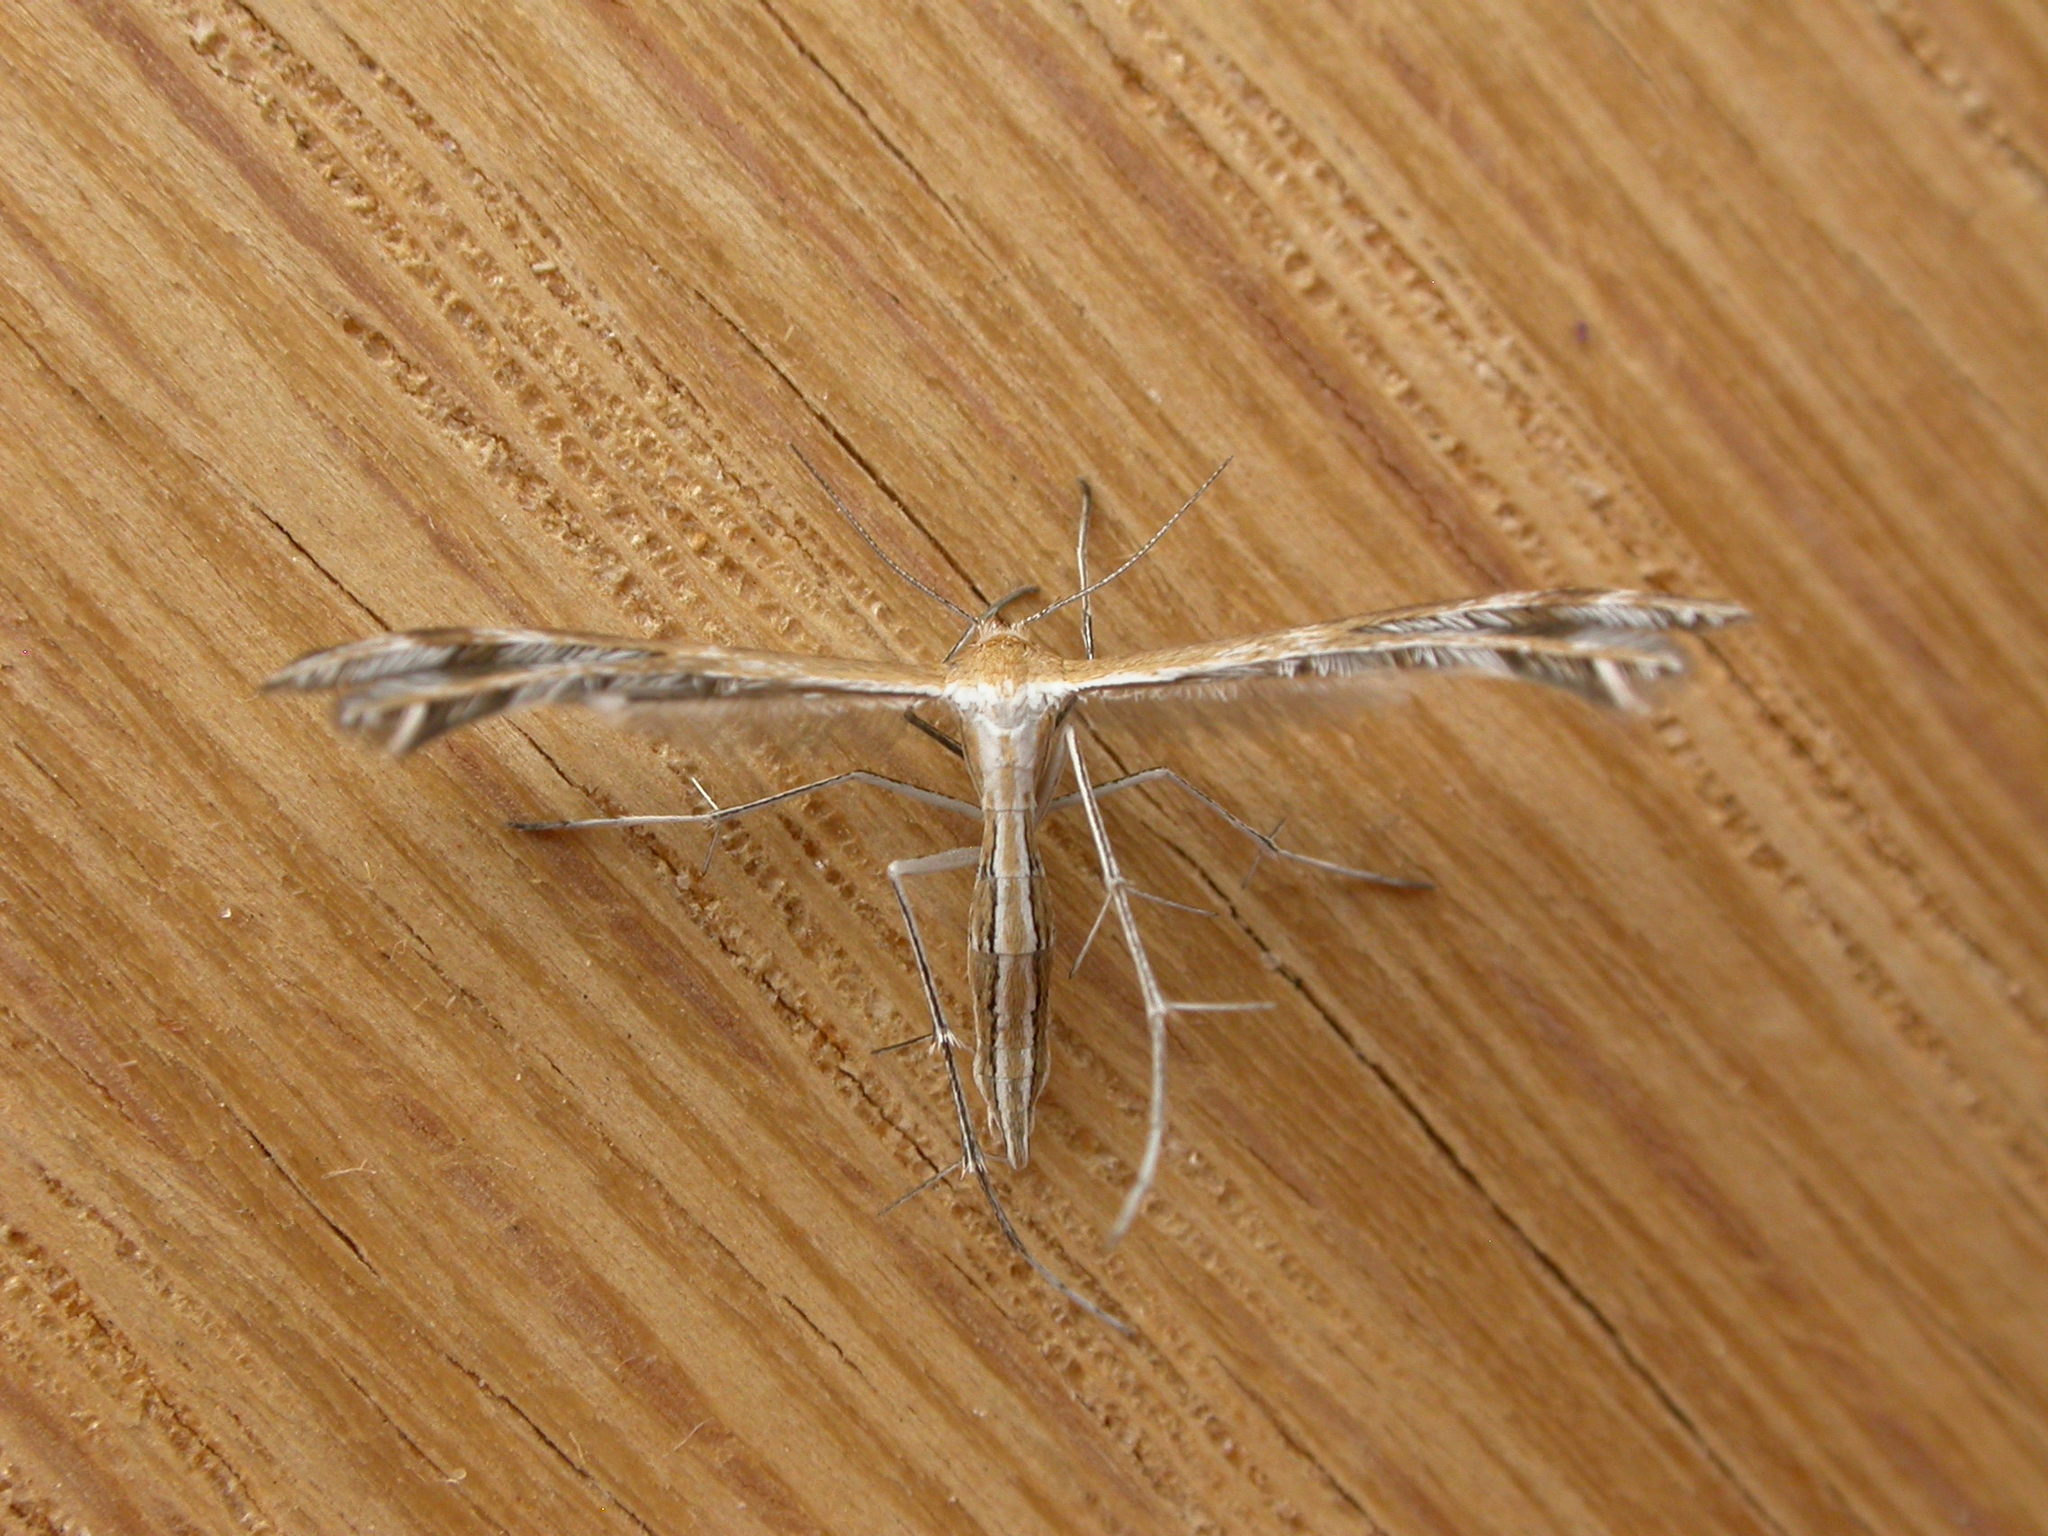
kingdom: Animalia
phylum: Arthropoda
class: Insecta
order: Lepidoptera
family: Pterophoridae
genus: Stangeia
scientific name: Stangeia xerodes
